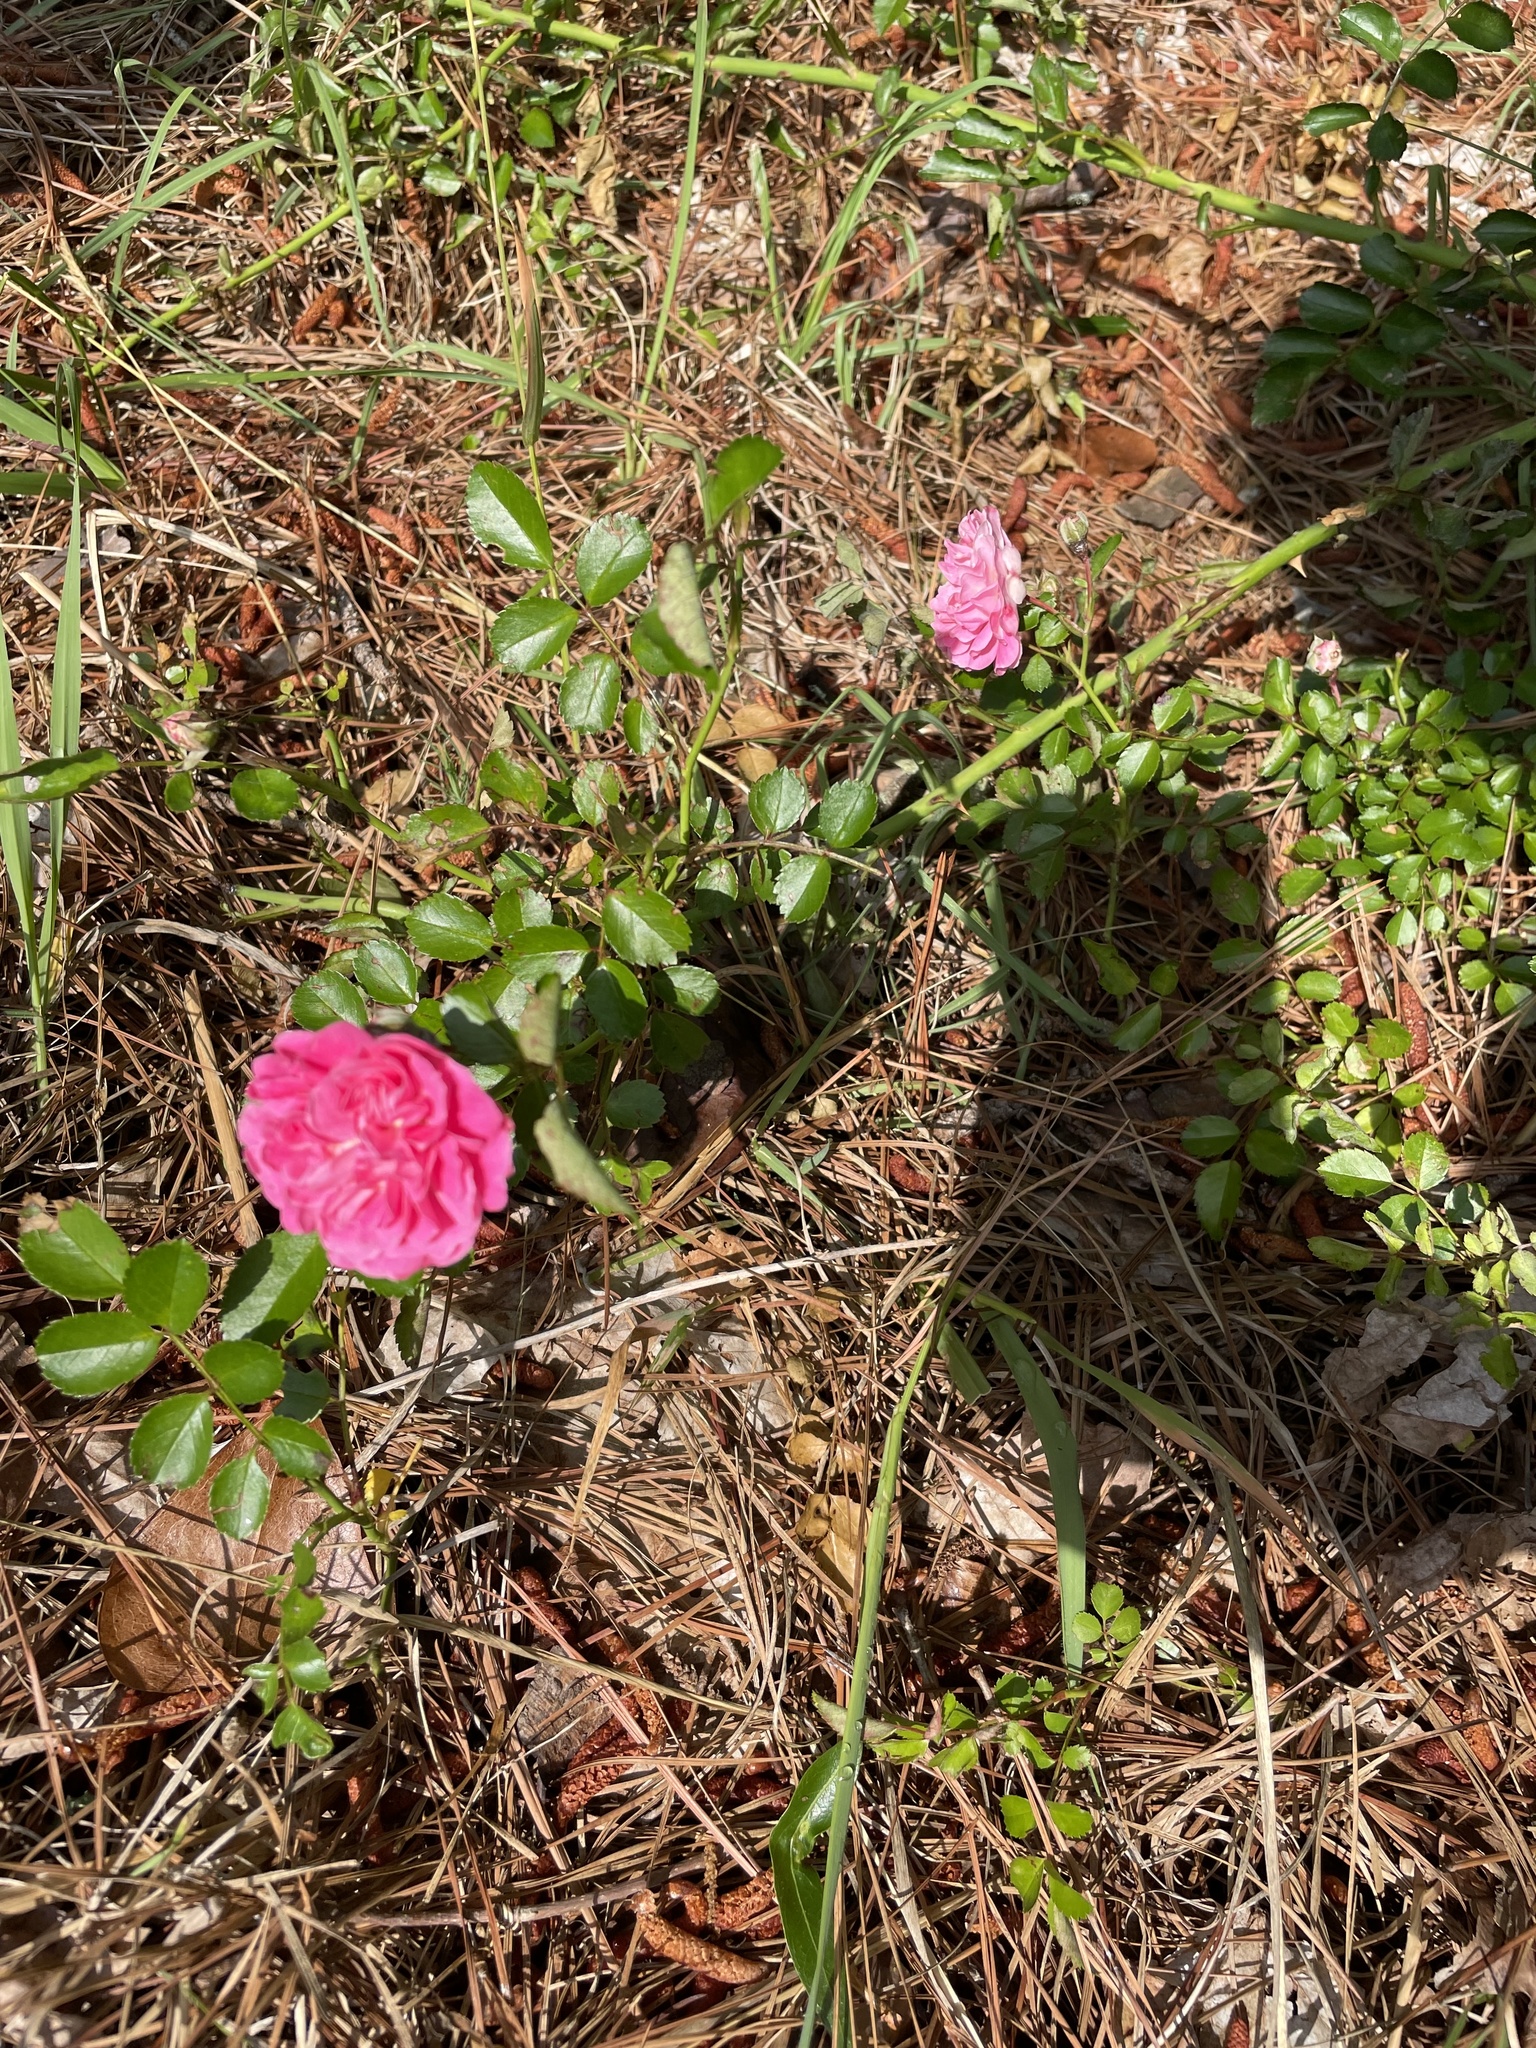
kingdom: Plantae
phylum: Tracheophyta
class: Magnoliopsida
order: Rosales
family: Rosaceae
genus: Rosa
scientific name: Rosa lucieae
